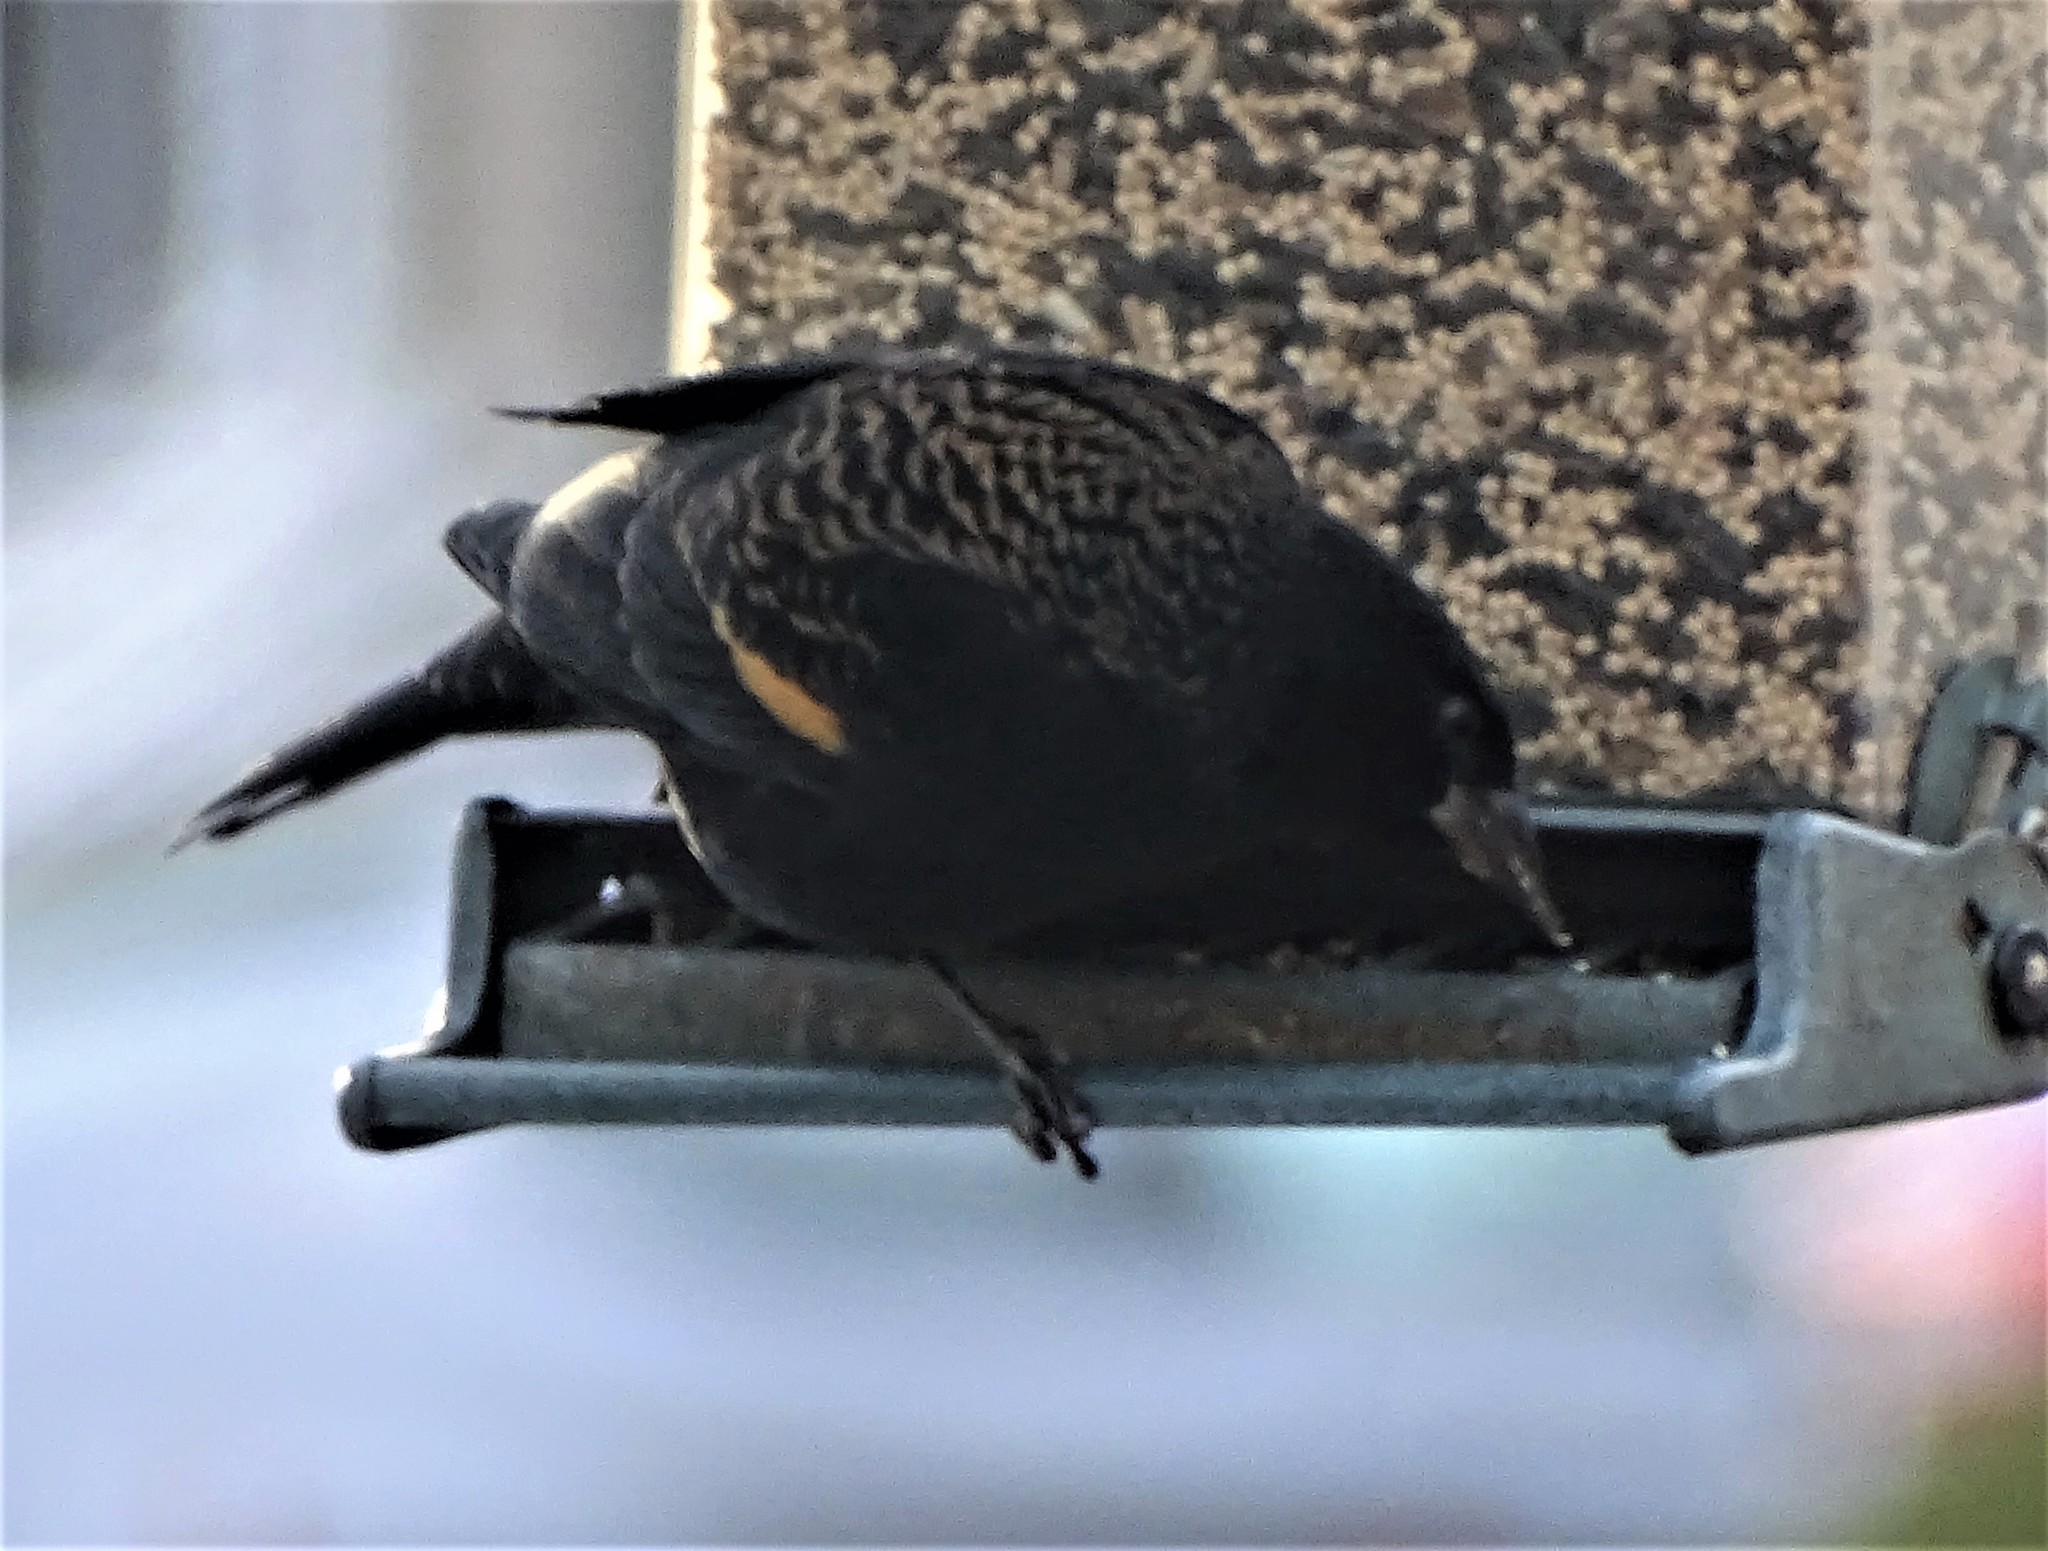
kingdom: Animalia
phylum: Chordata
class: Aves
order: Passeriformes
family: Icteridae
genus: Agelaius
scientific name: Agelaius phoeniceus
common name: Red-winged blackbird
